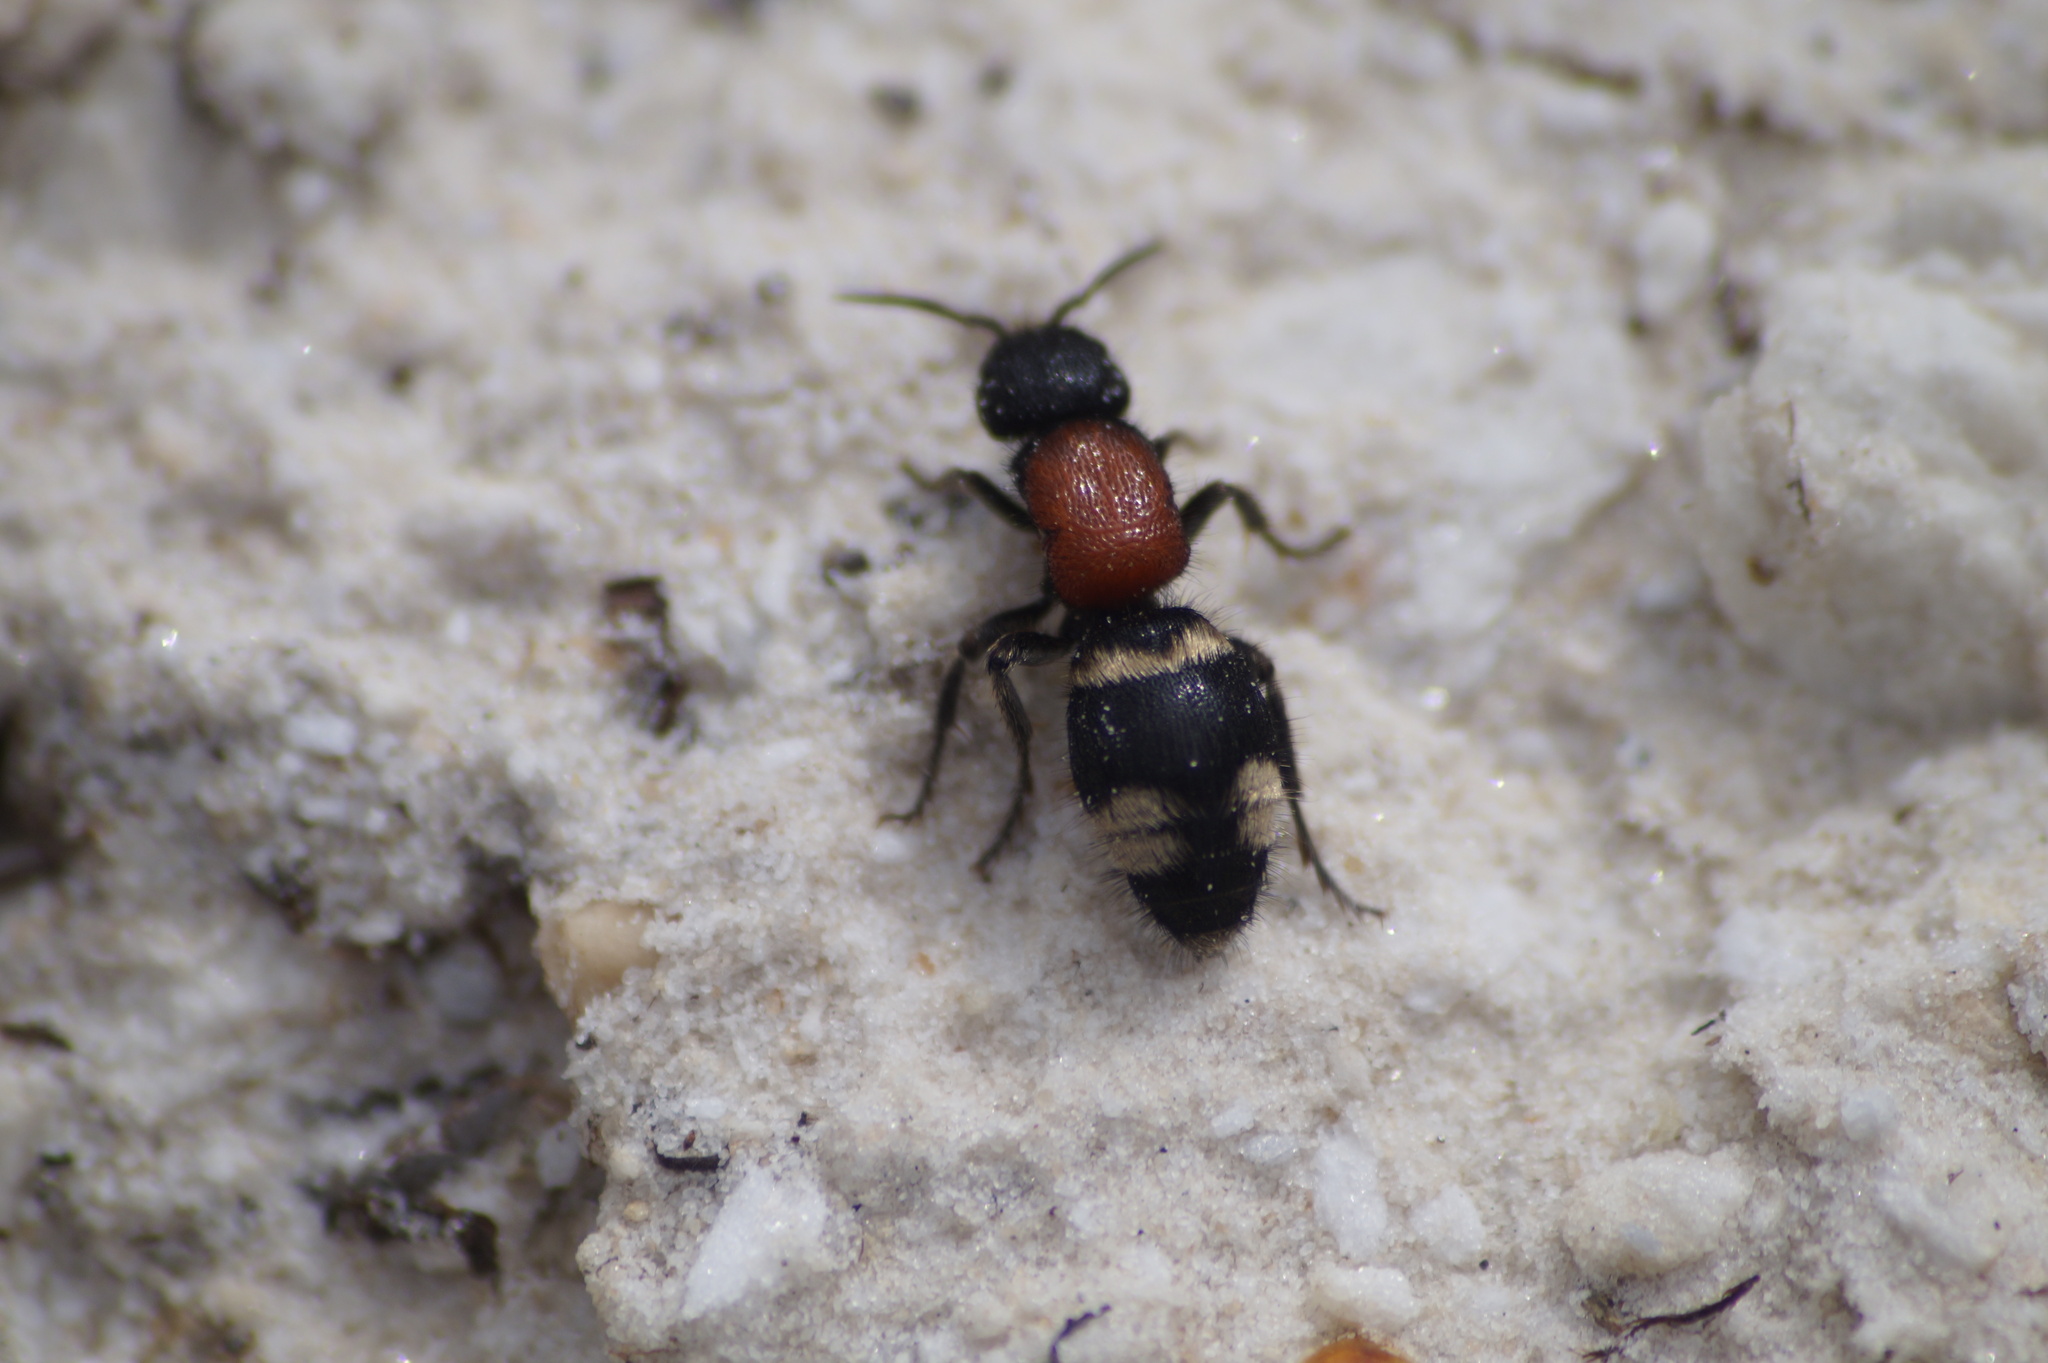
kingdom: Animalia
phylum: Arthropoda
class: Insecta
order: Hymenoptera
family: Mutillidae
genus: Mutilla
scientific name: Mutilla europaea
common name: Large velvet ant
